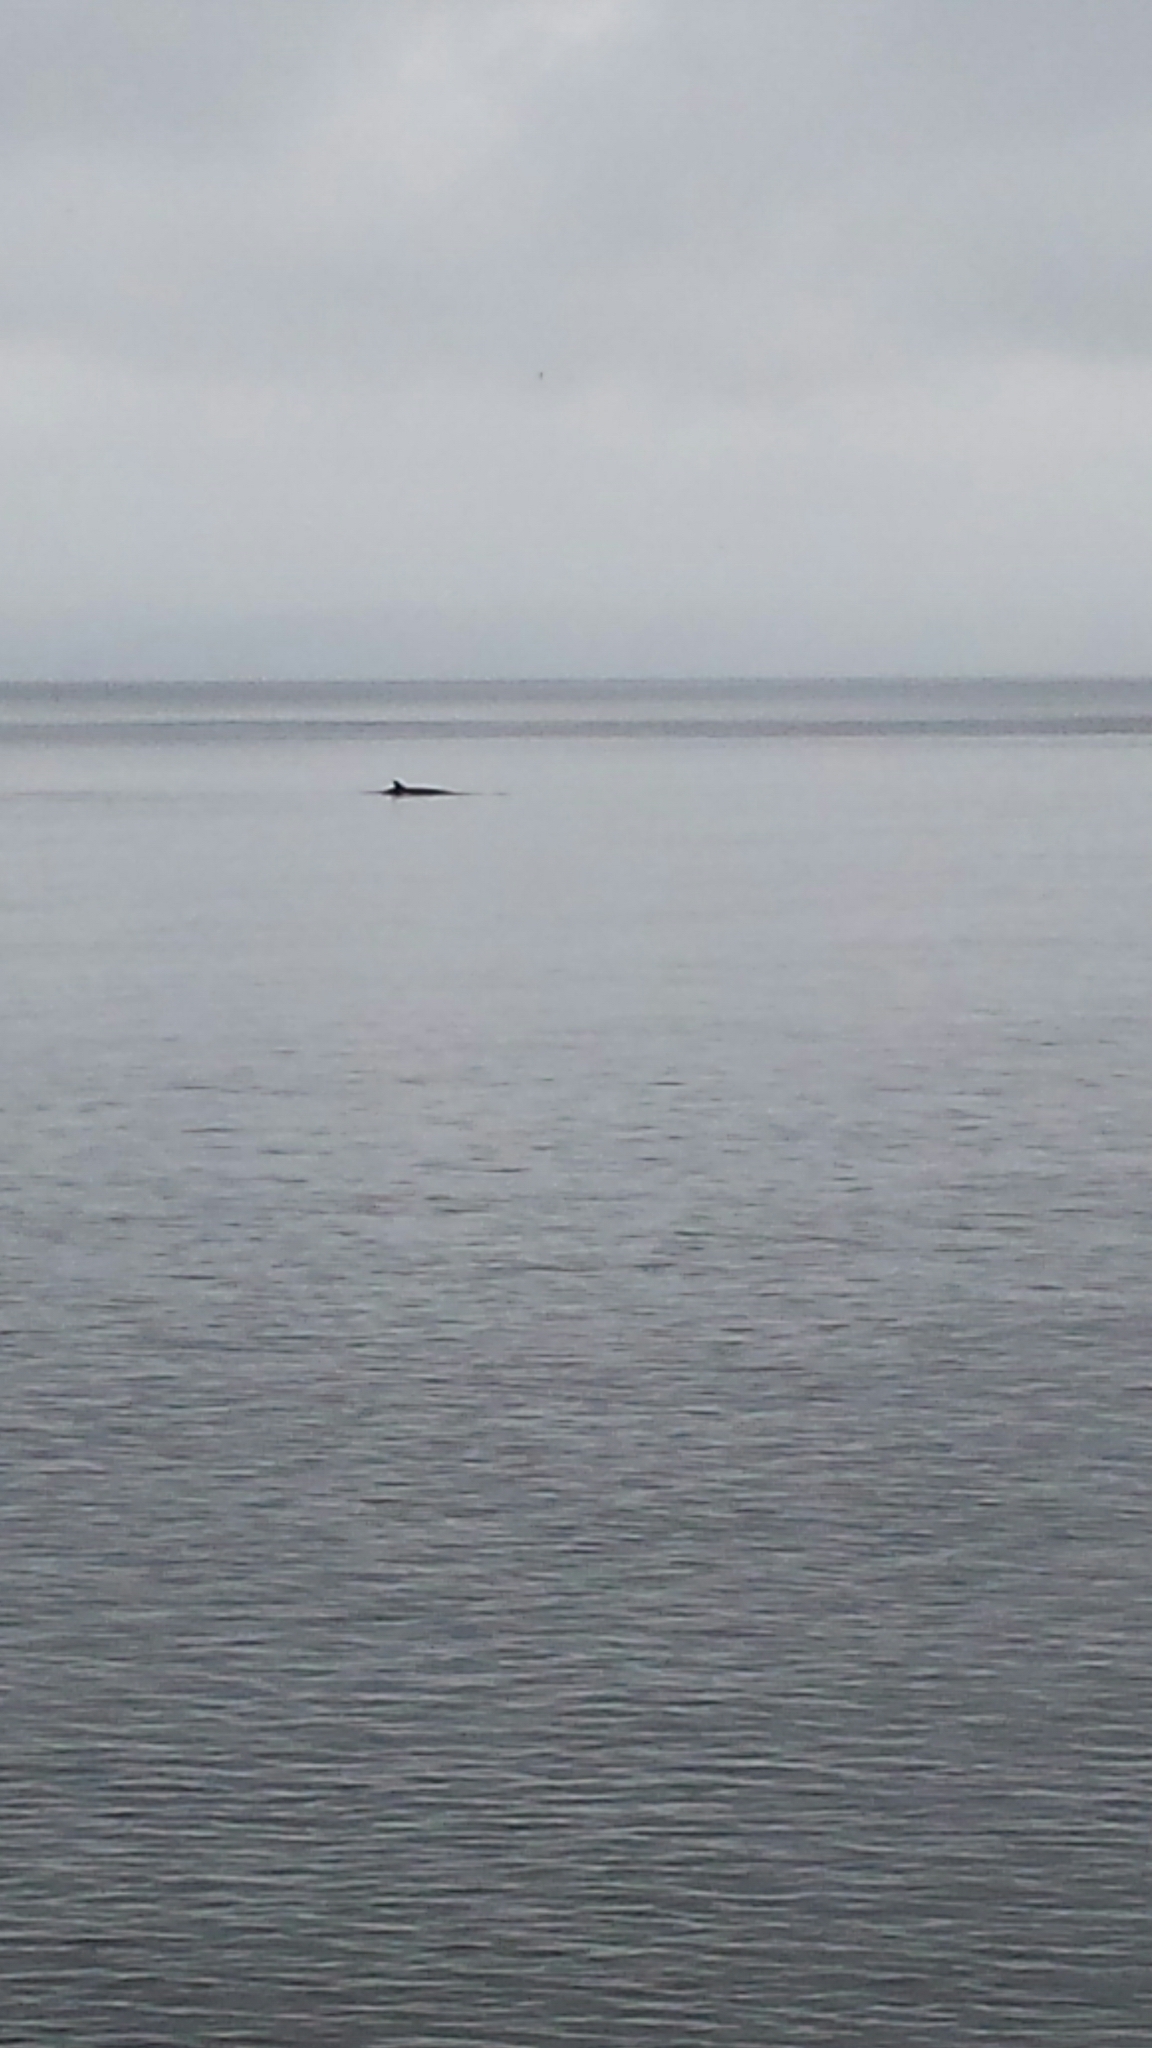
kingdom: Animalia
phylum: Chordata
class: Mammalia
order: Cetacea
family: Balaenopteridae
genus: Balaenoptera
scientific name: Balaenoptera acutorostrata
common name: Common minke whale
